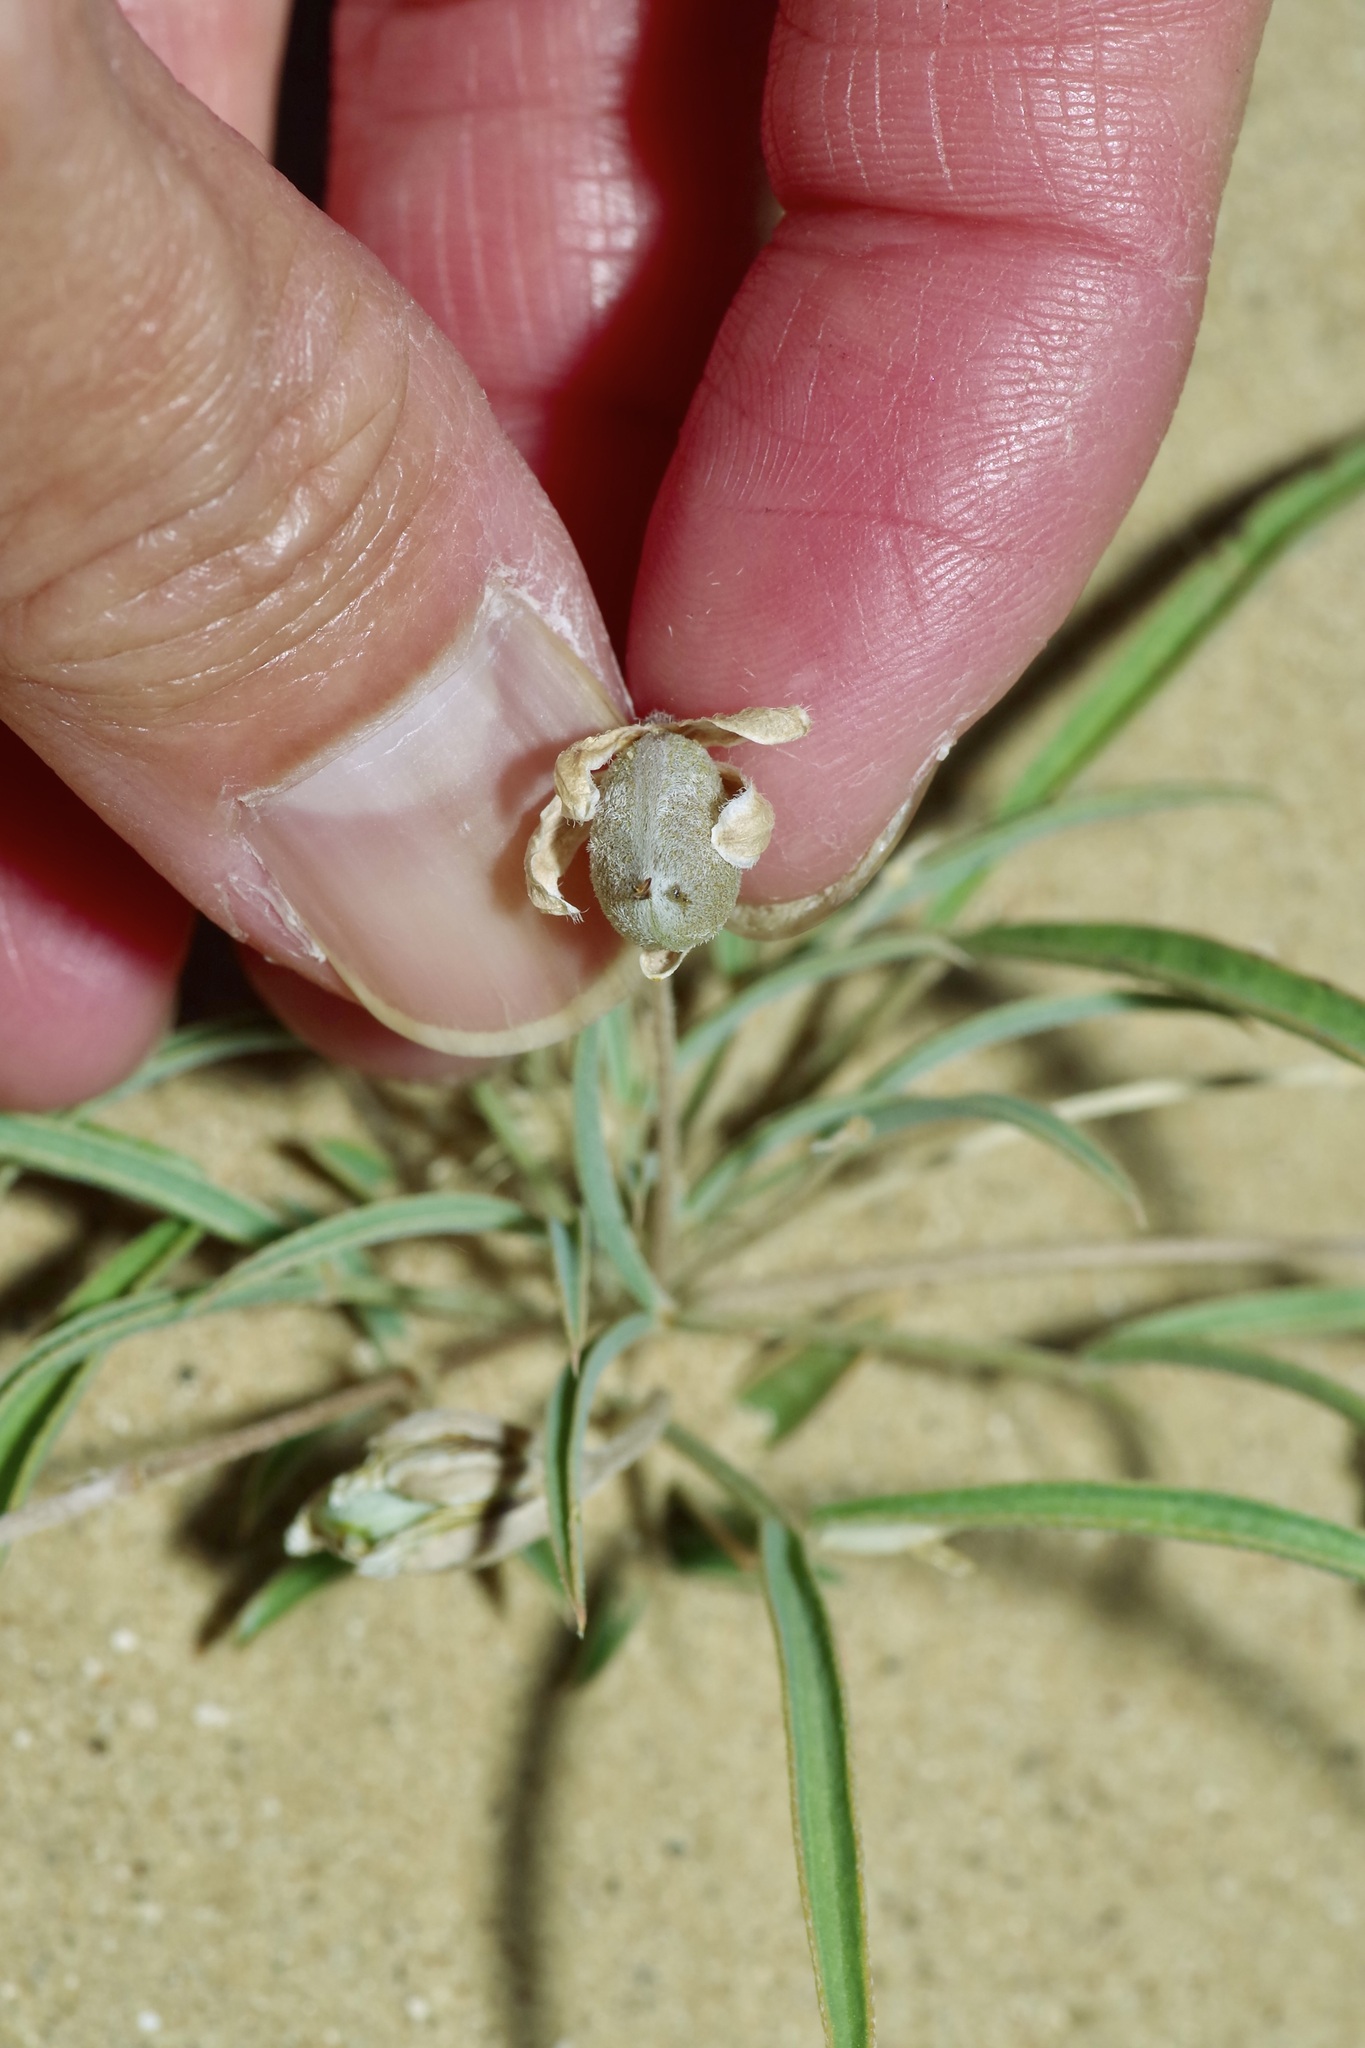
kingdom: Plantae
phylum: Tracheophyta
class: Magnoliopsida
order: Fabales
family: Fabaceae
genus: Senna
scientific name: Senna pumilio
